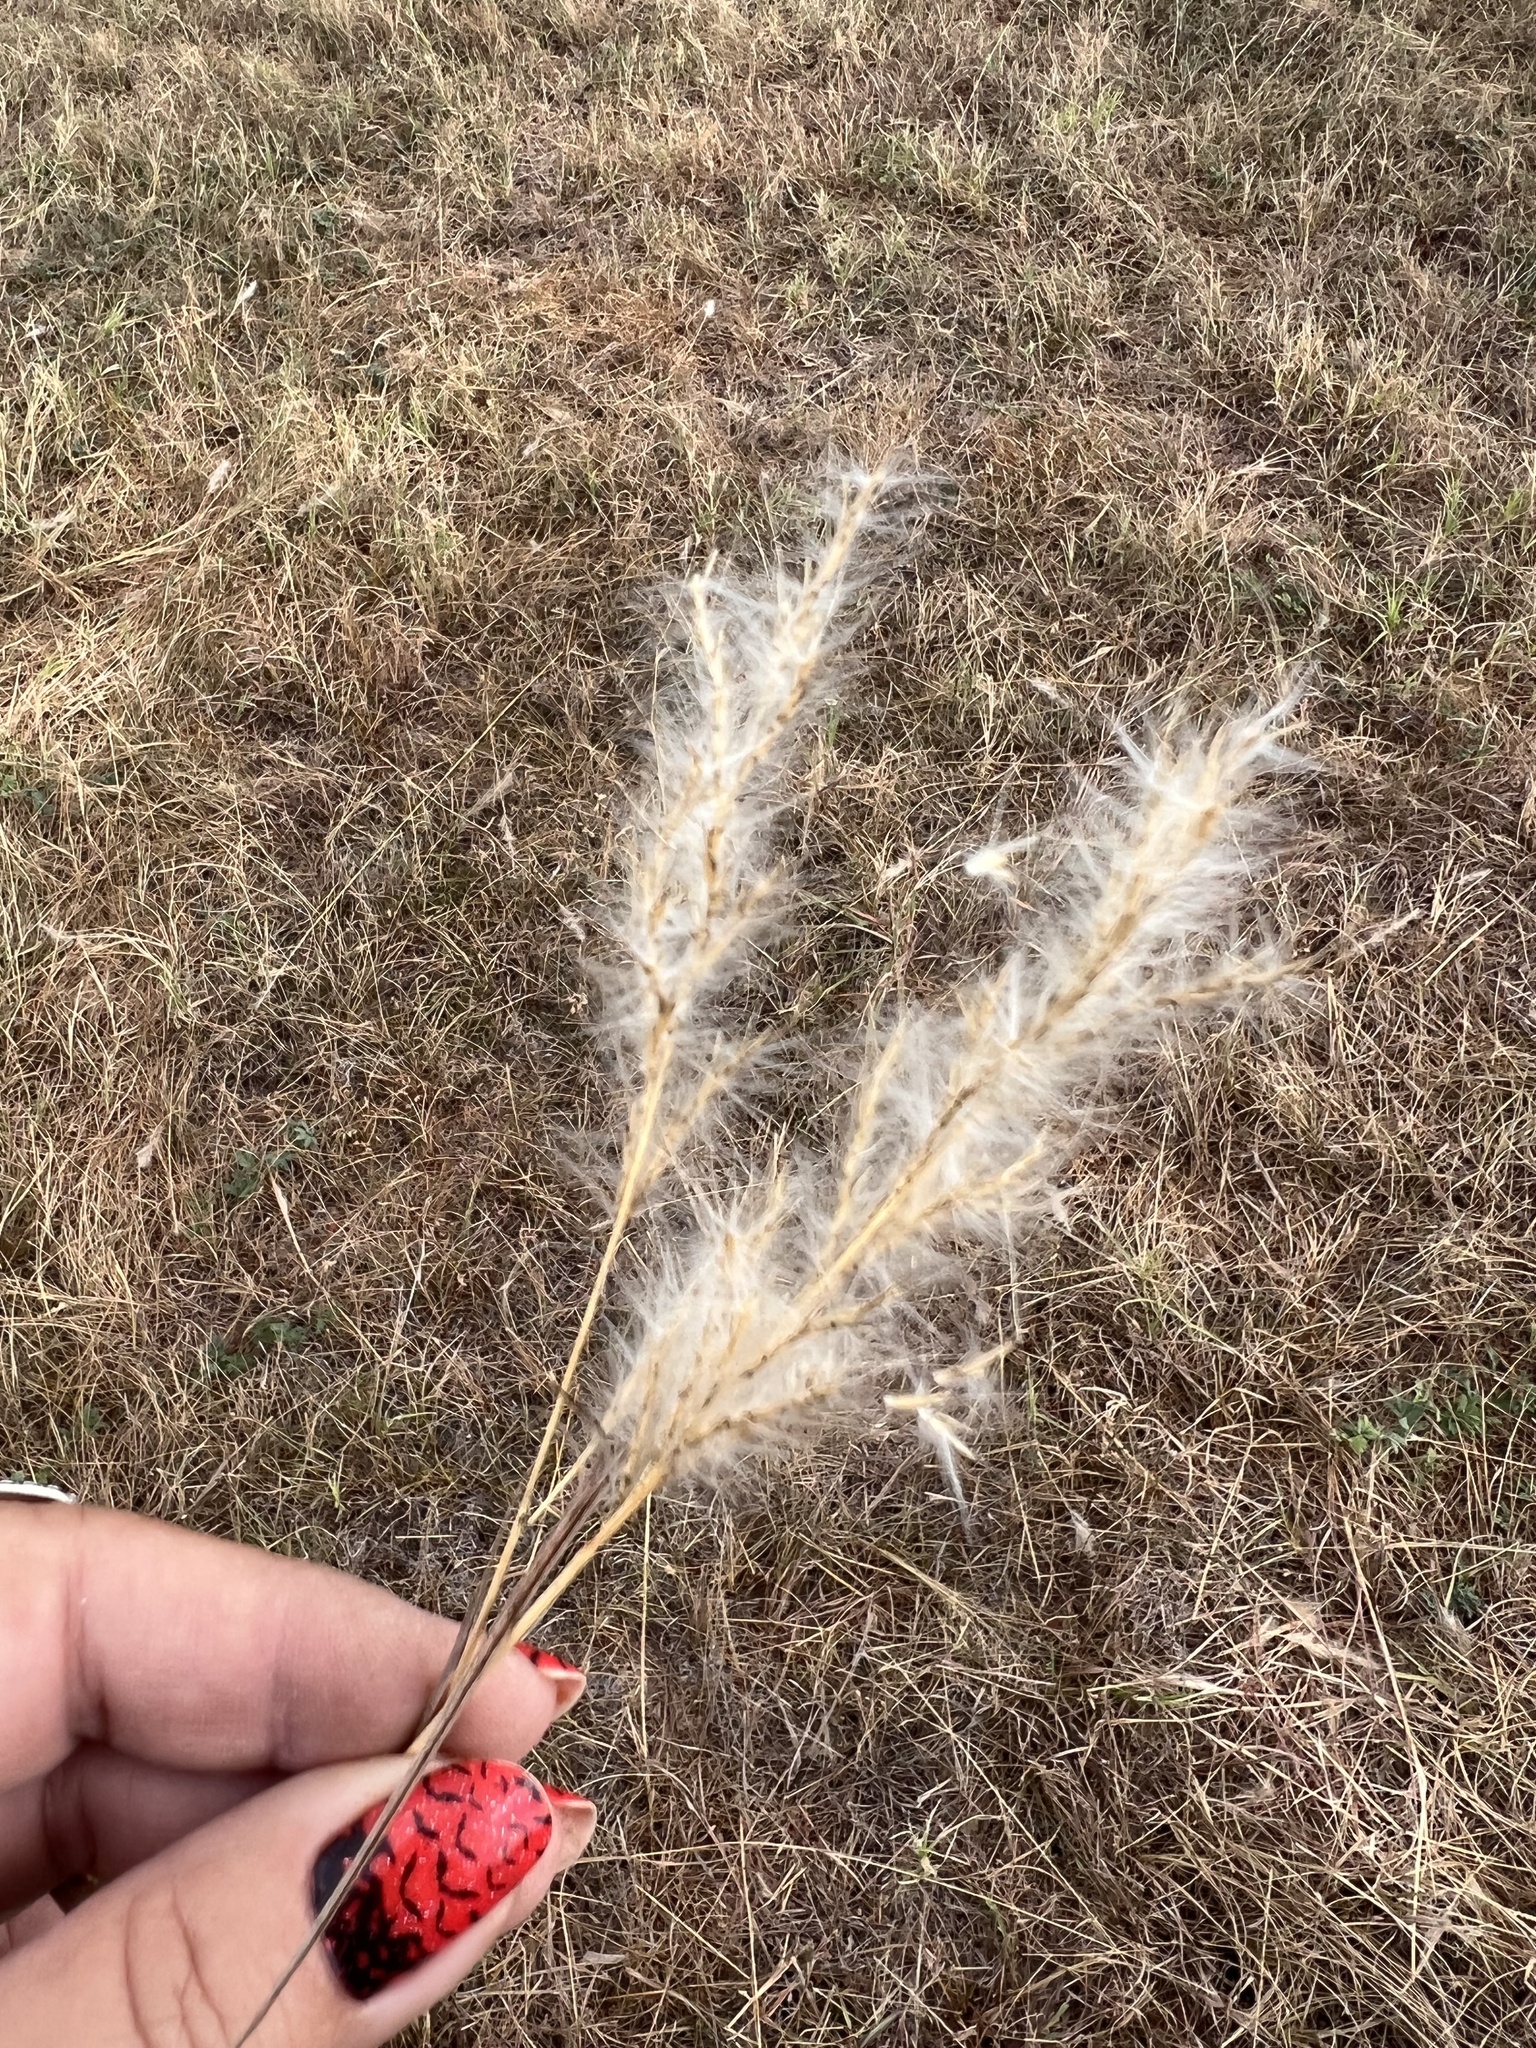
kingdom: Plantae
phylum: Tracheophyta
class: Liliopsida
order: Poales
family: Poaceae
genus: Bothriochloa
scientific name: Bothriochloa torreyana
